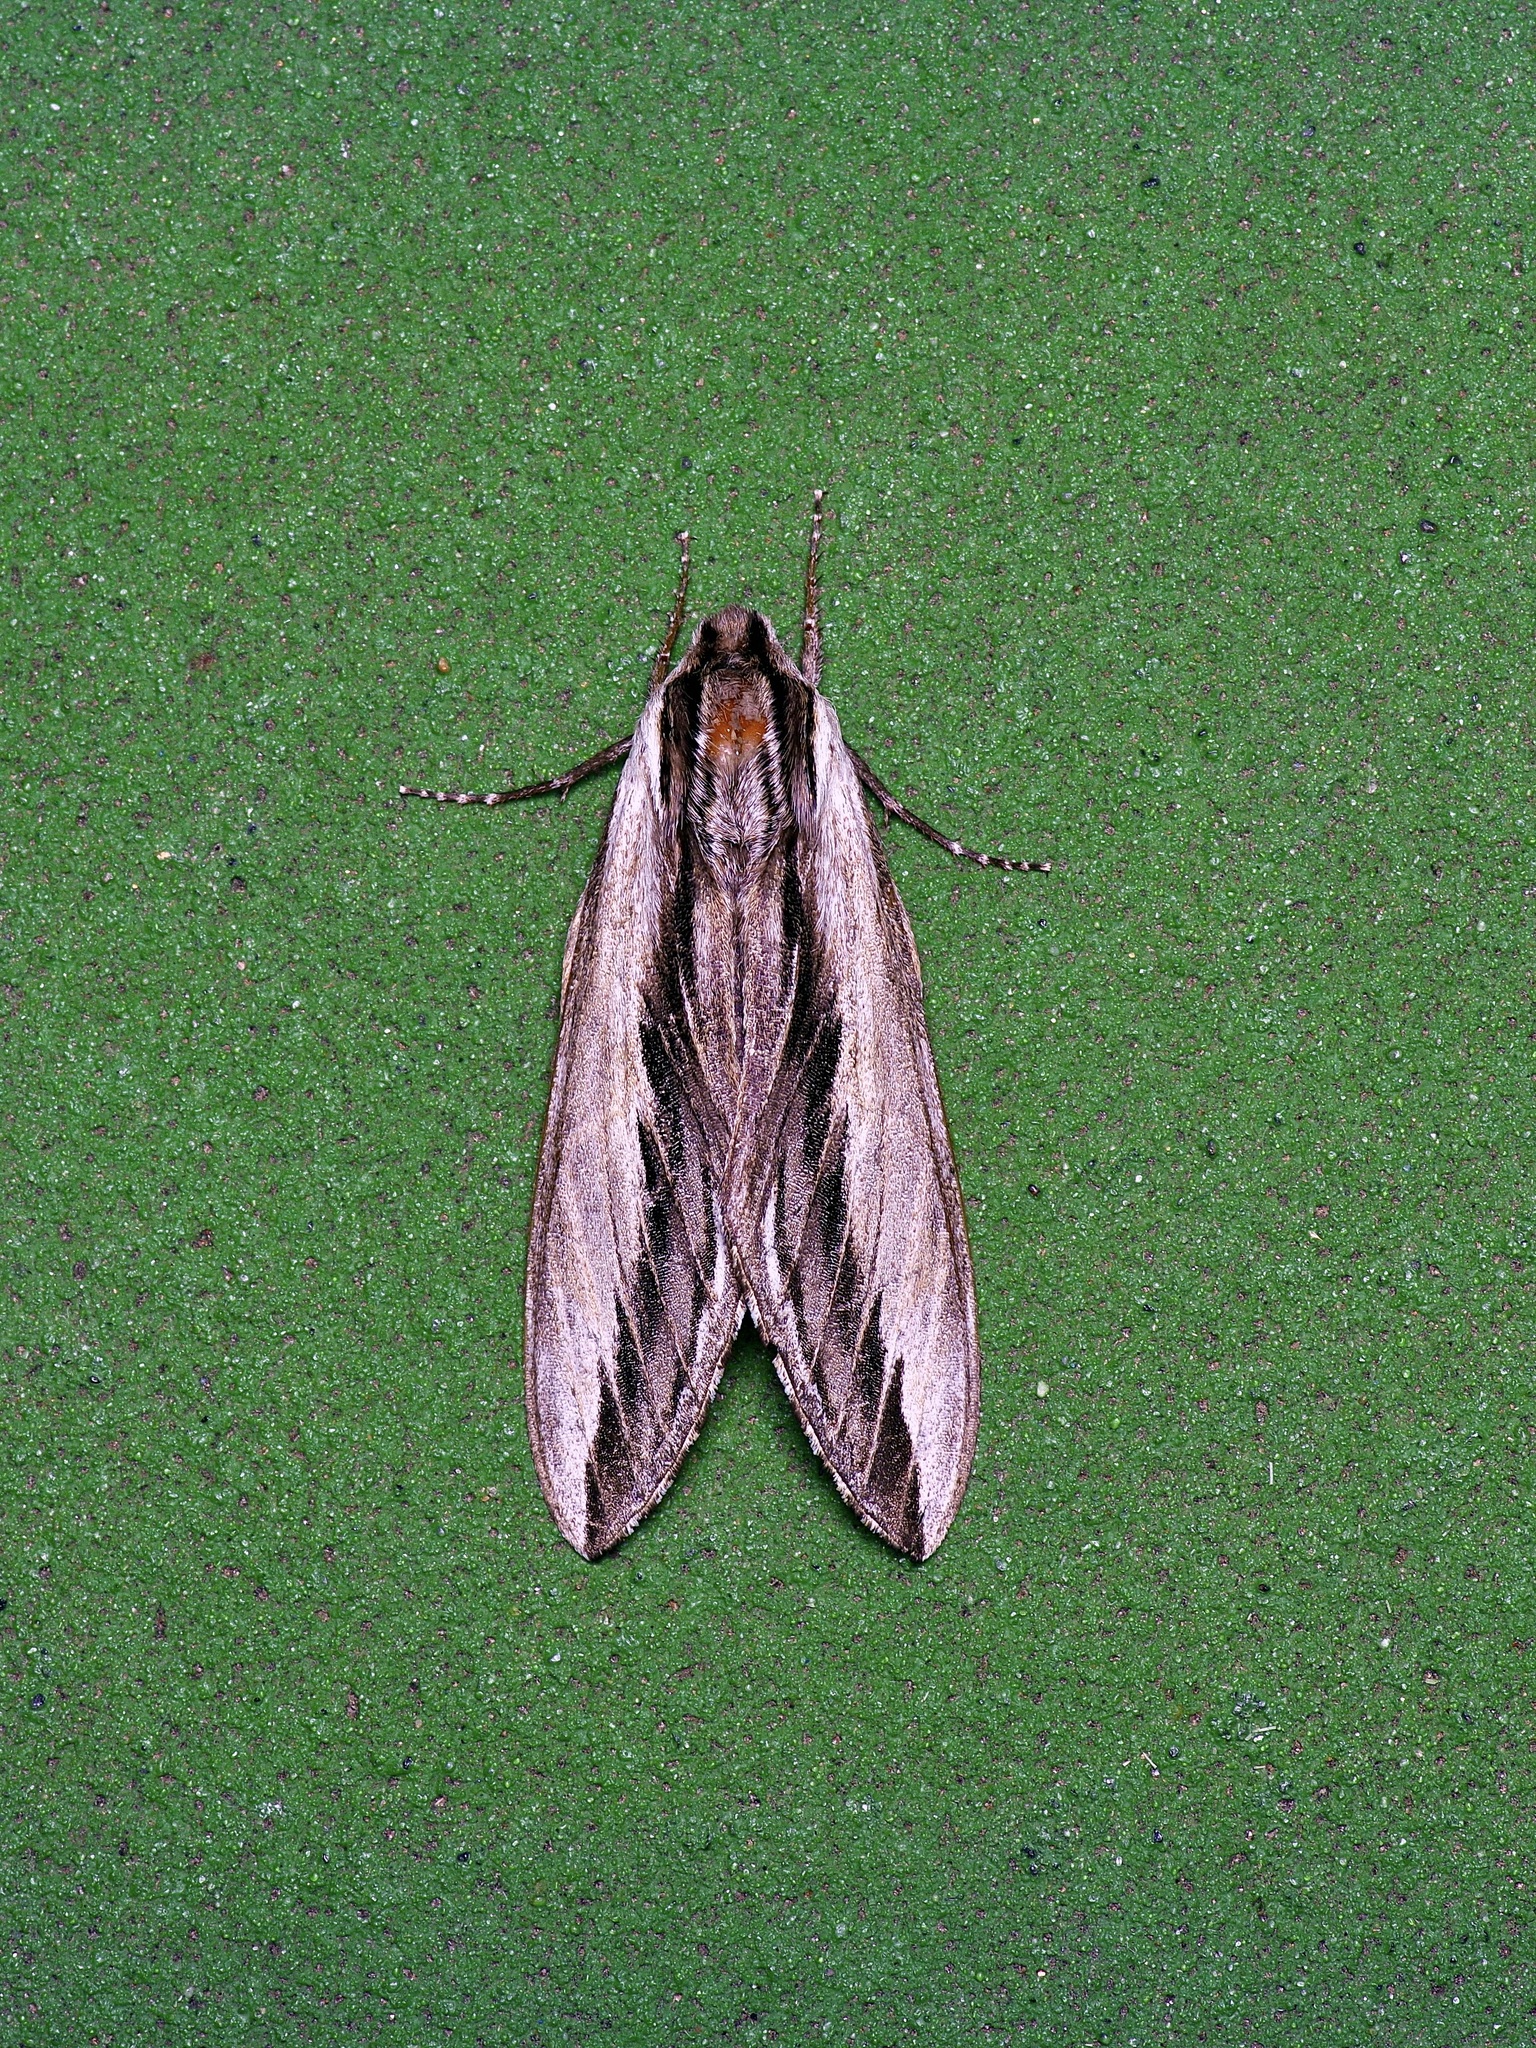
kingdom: Animalia
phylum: Arthropoda
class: Insecta
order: Lepidoptera
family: Sphingidae
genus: Sphinx
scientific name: Sphinx vanbuskirki
